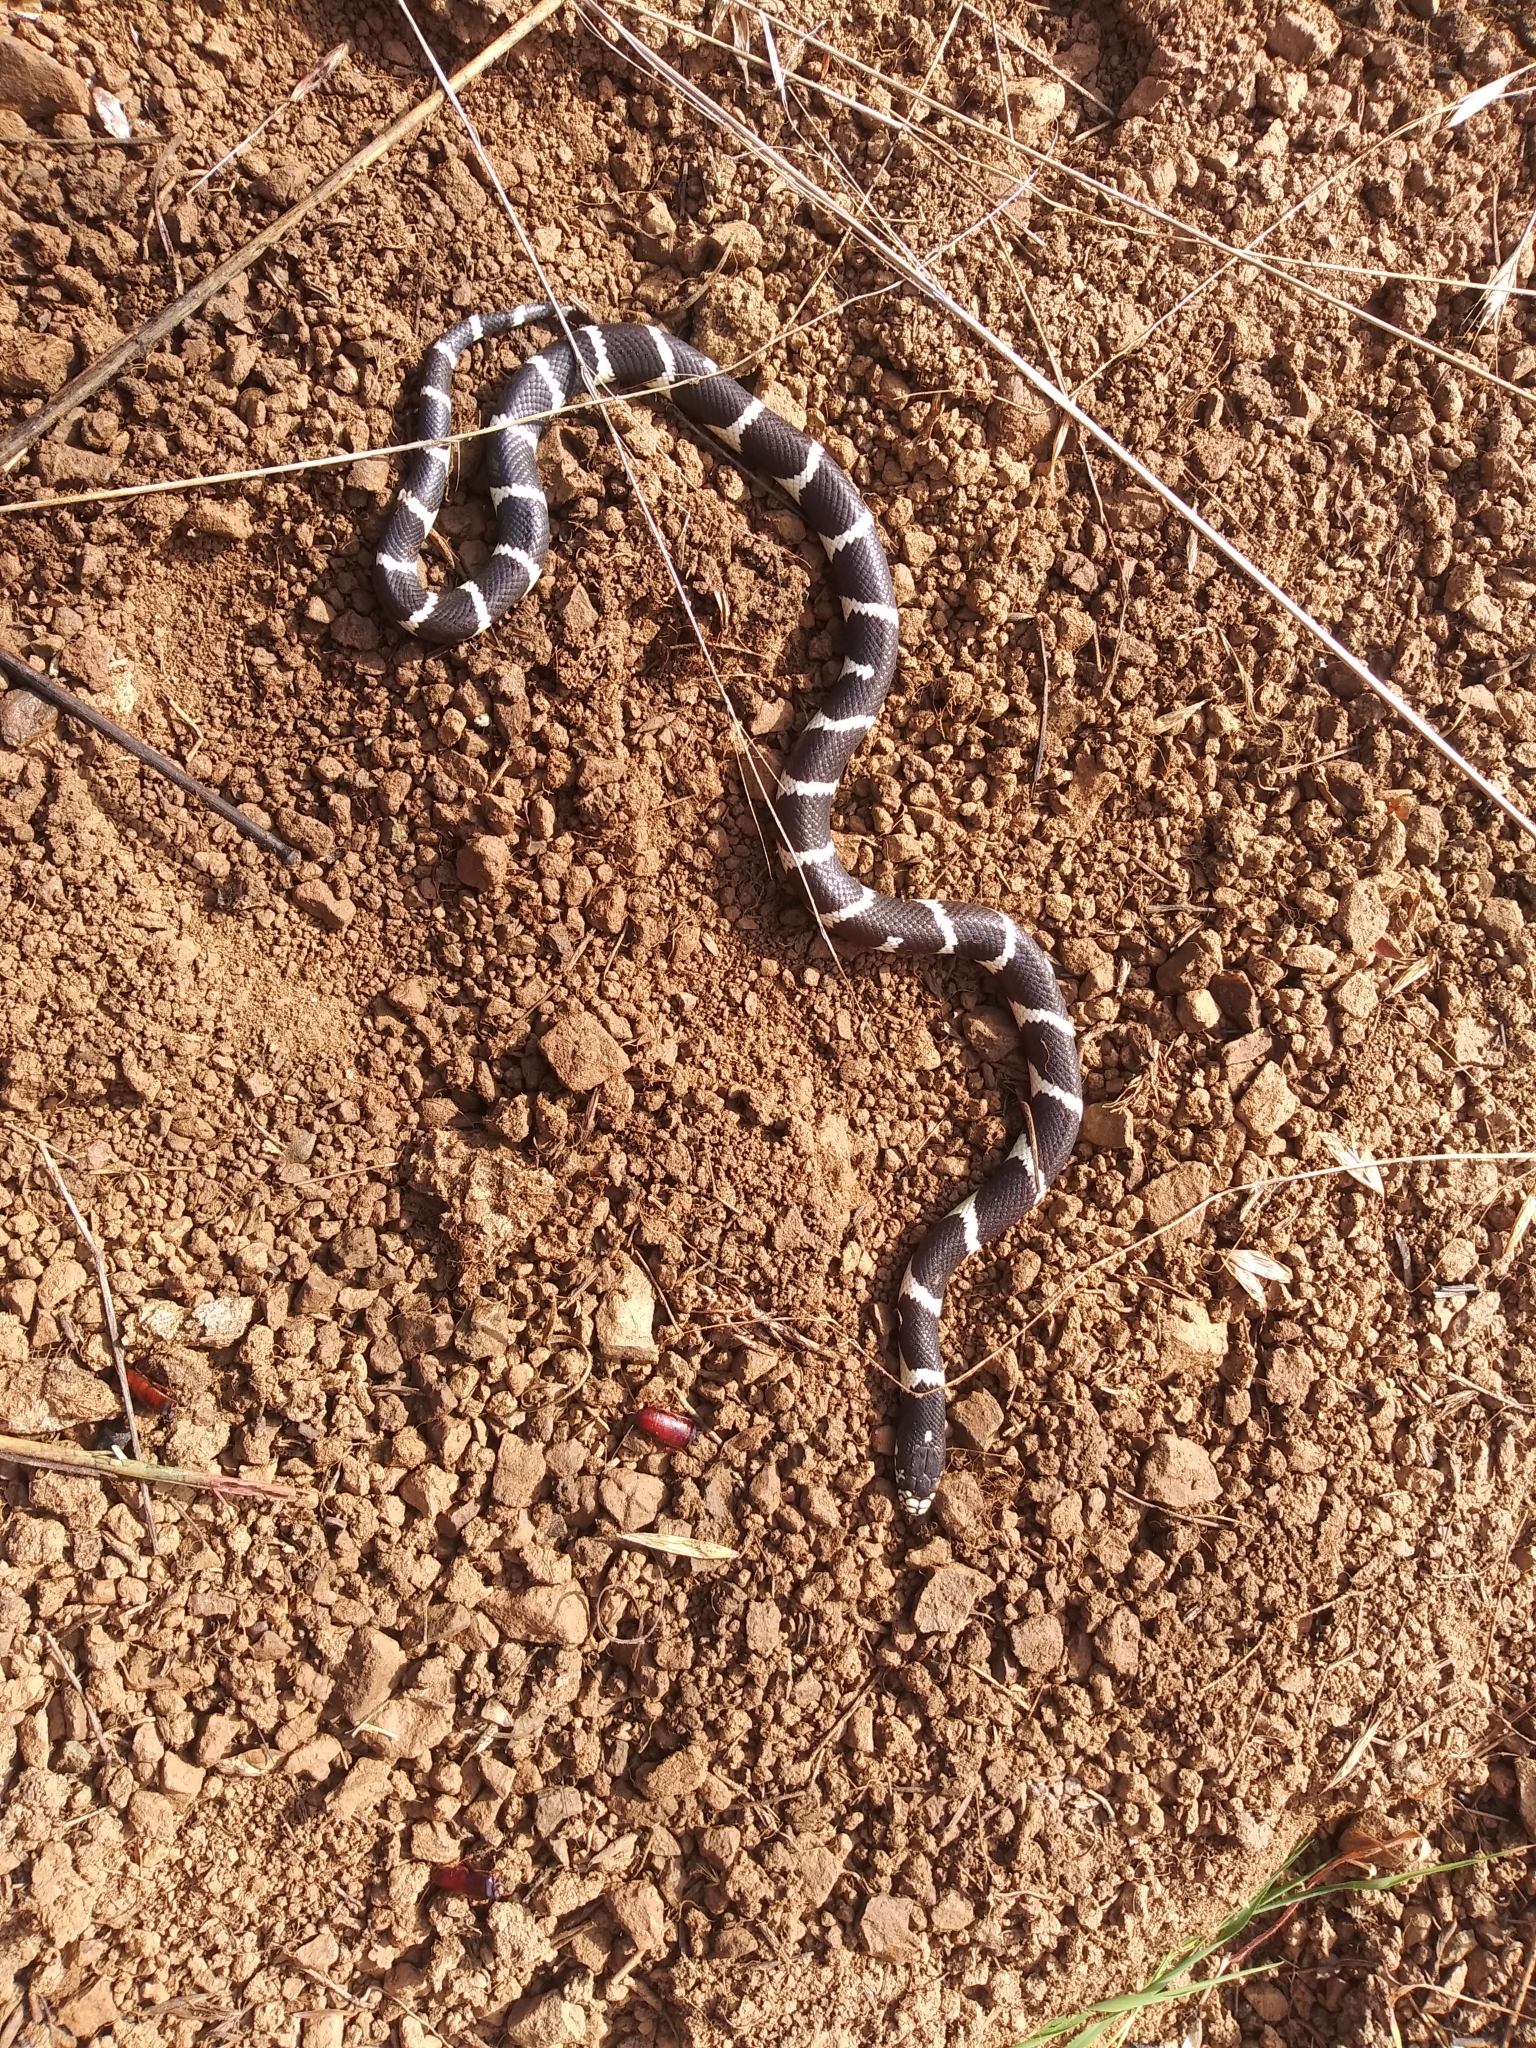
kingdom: Animalia
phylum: Chordata
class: Squamata
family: Colubridae
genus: Lampropeltis
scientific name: Lampropeltis californiae
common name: California kingsnake
